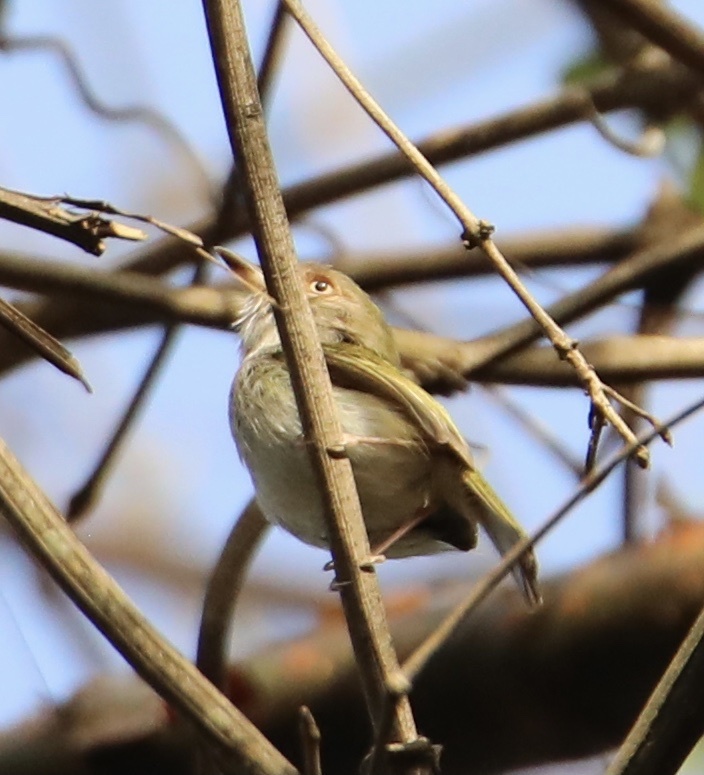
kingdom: Animalia
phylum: Chordata
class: Aves
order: Passeriformes
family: Tyrannidae
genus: Atalotriccus
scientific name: Atalotriccus pilaris
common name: Pale-eyed pygmy-tyrant
